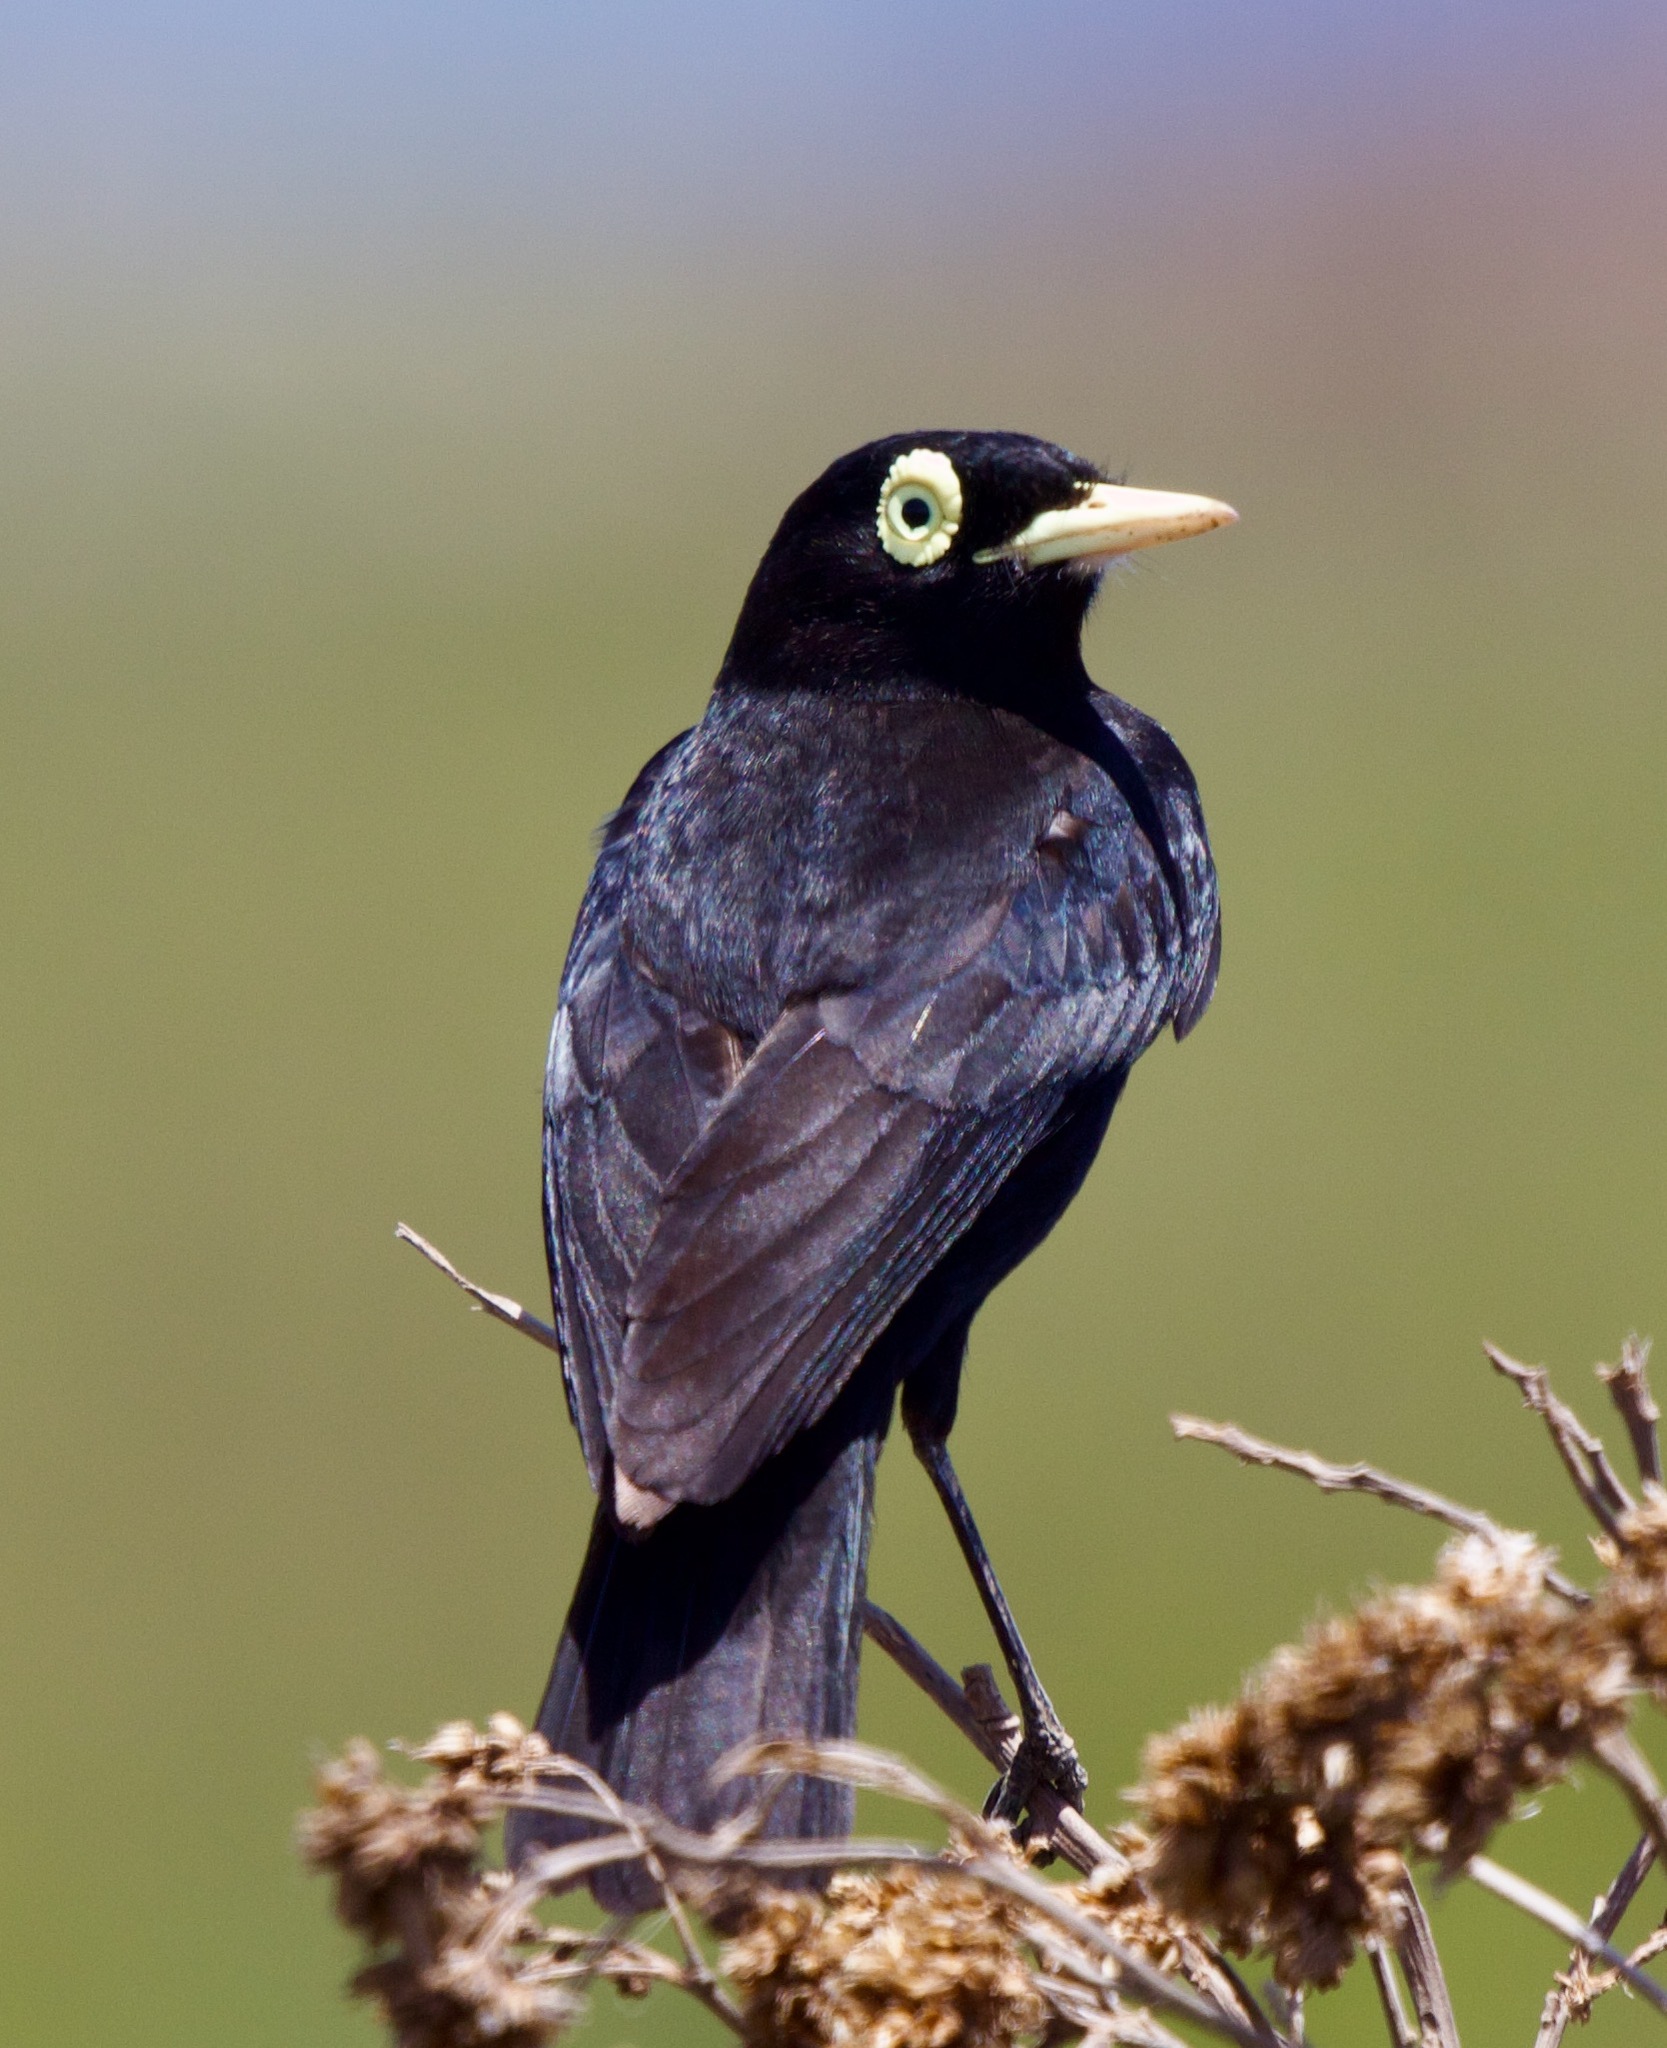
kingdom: Animalia
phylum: Chordata
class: Aves
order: Passeriformes
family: Tyrannidae
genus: Hymenops
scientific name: Hymenops perspicillatus
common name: Spectacled tyrant
